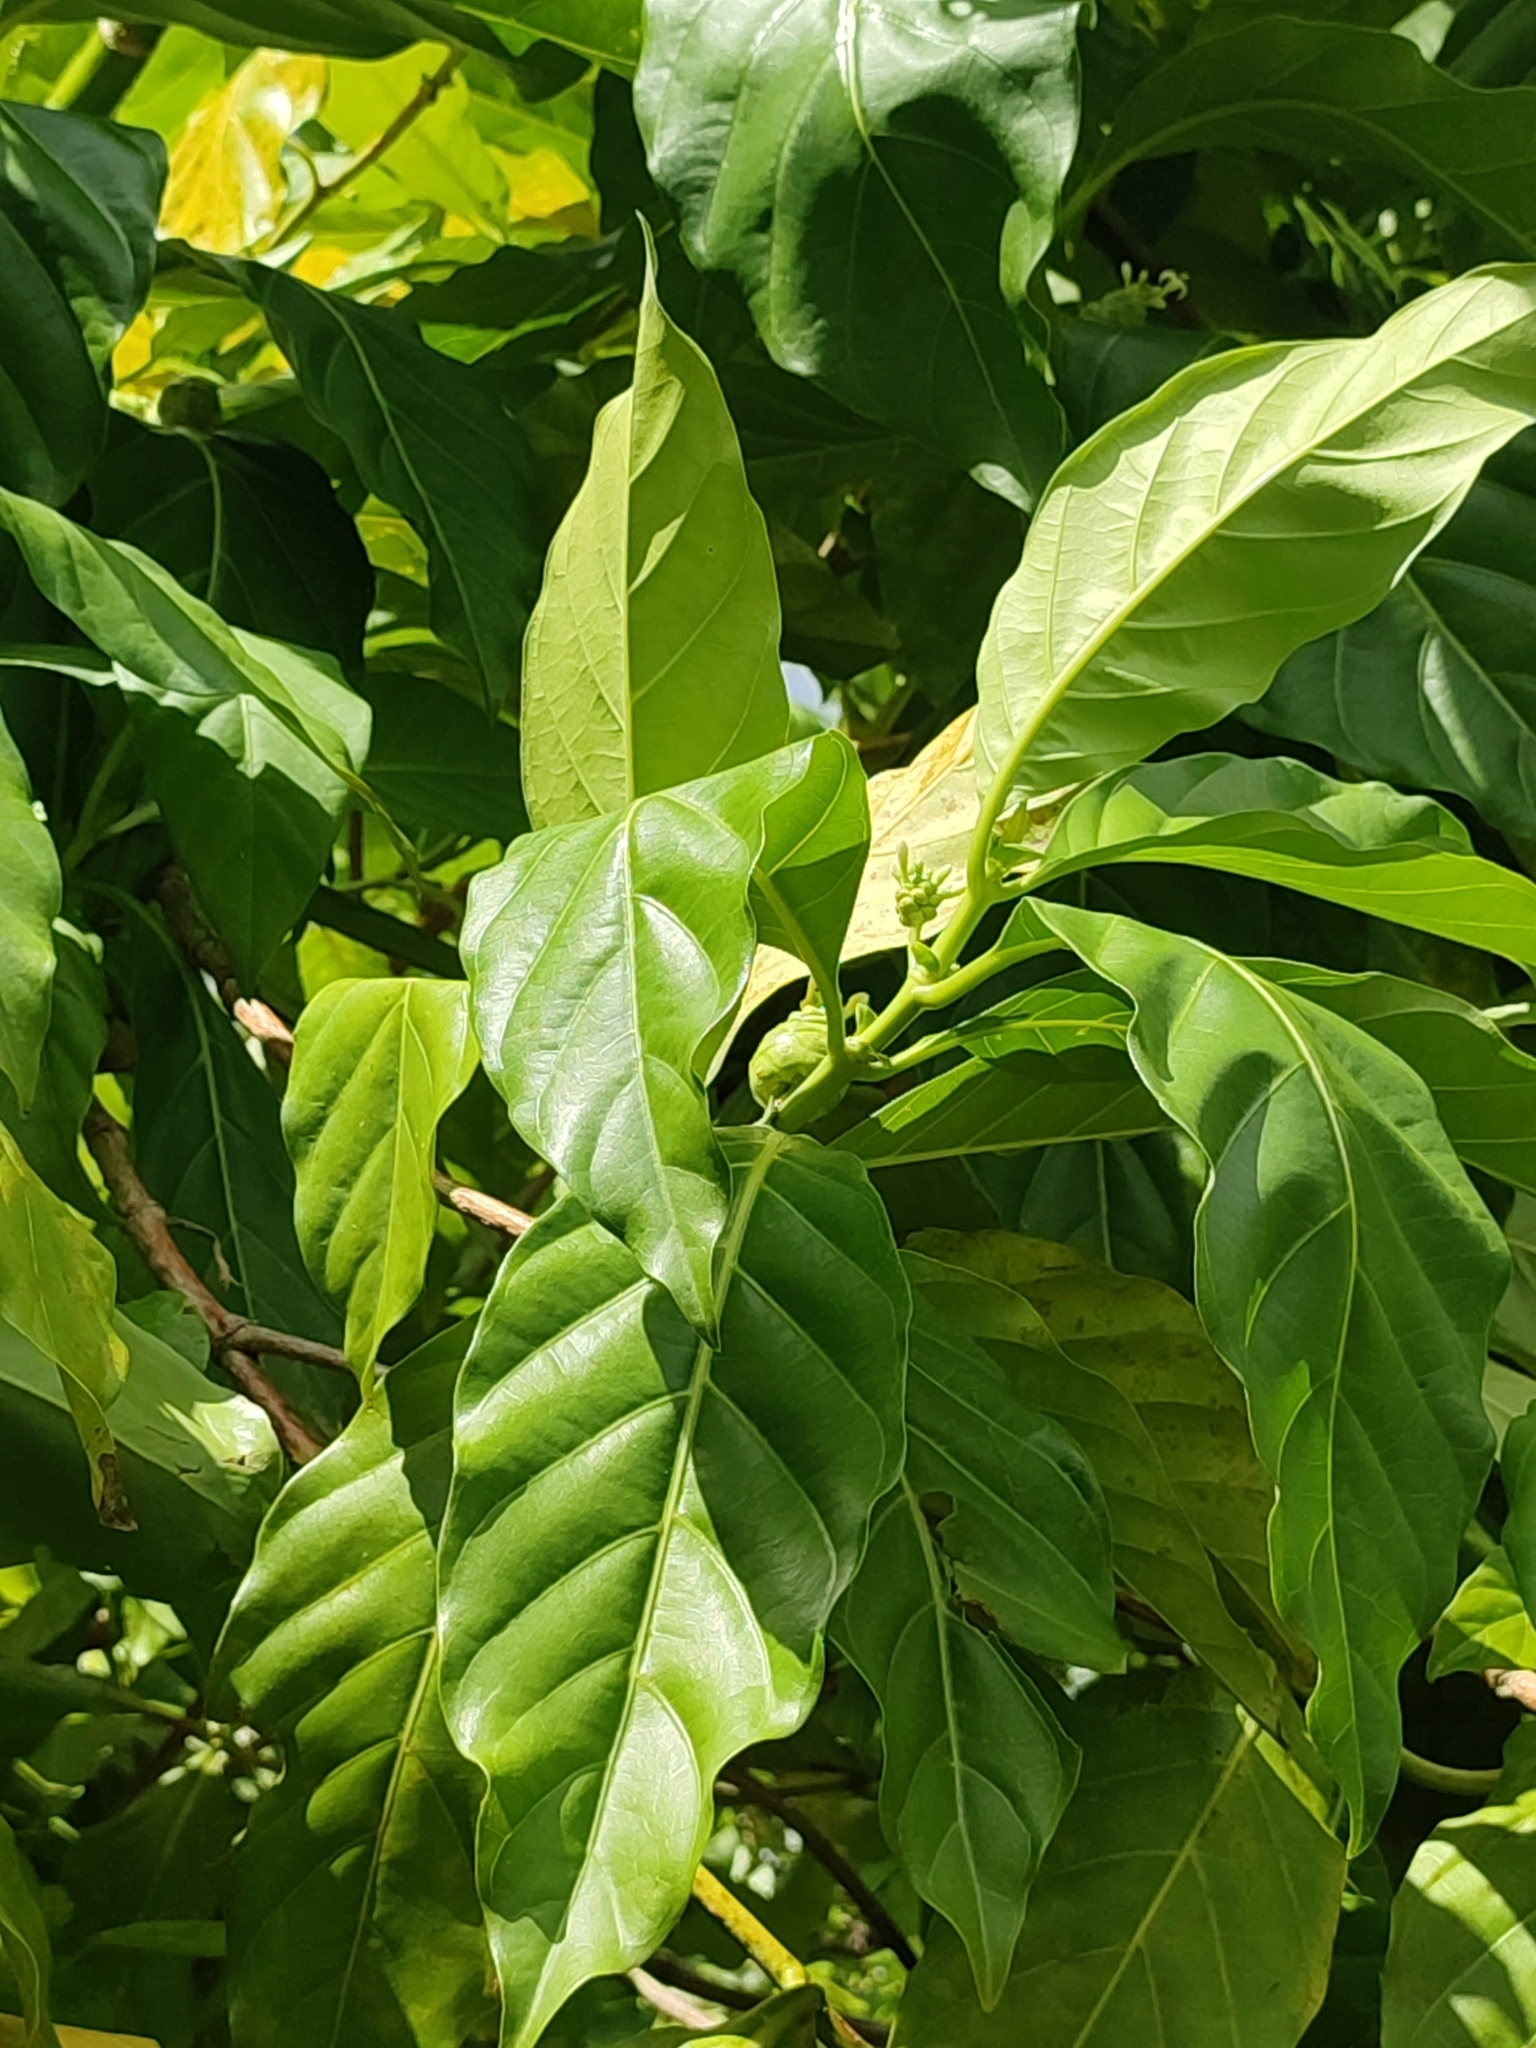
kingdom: Plantae
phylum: Tracheophyta
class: Magnoliopsida
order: Gentianales
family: Rubiaceae
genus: Morinda
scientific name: Morinda citrifolia
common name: Indian-mulberry
